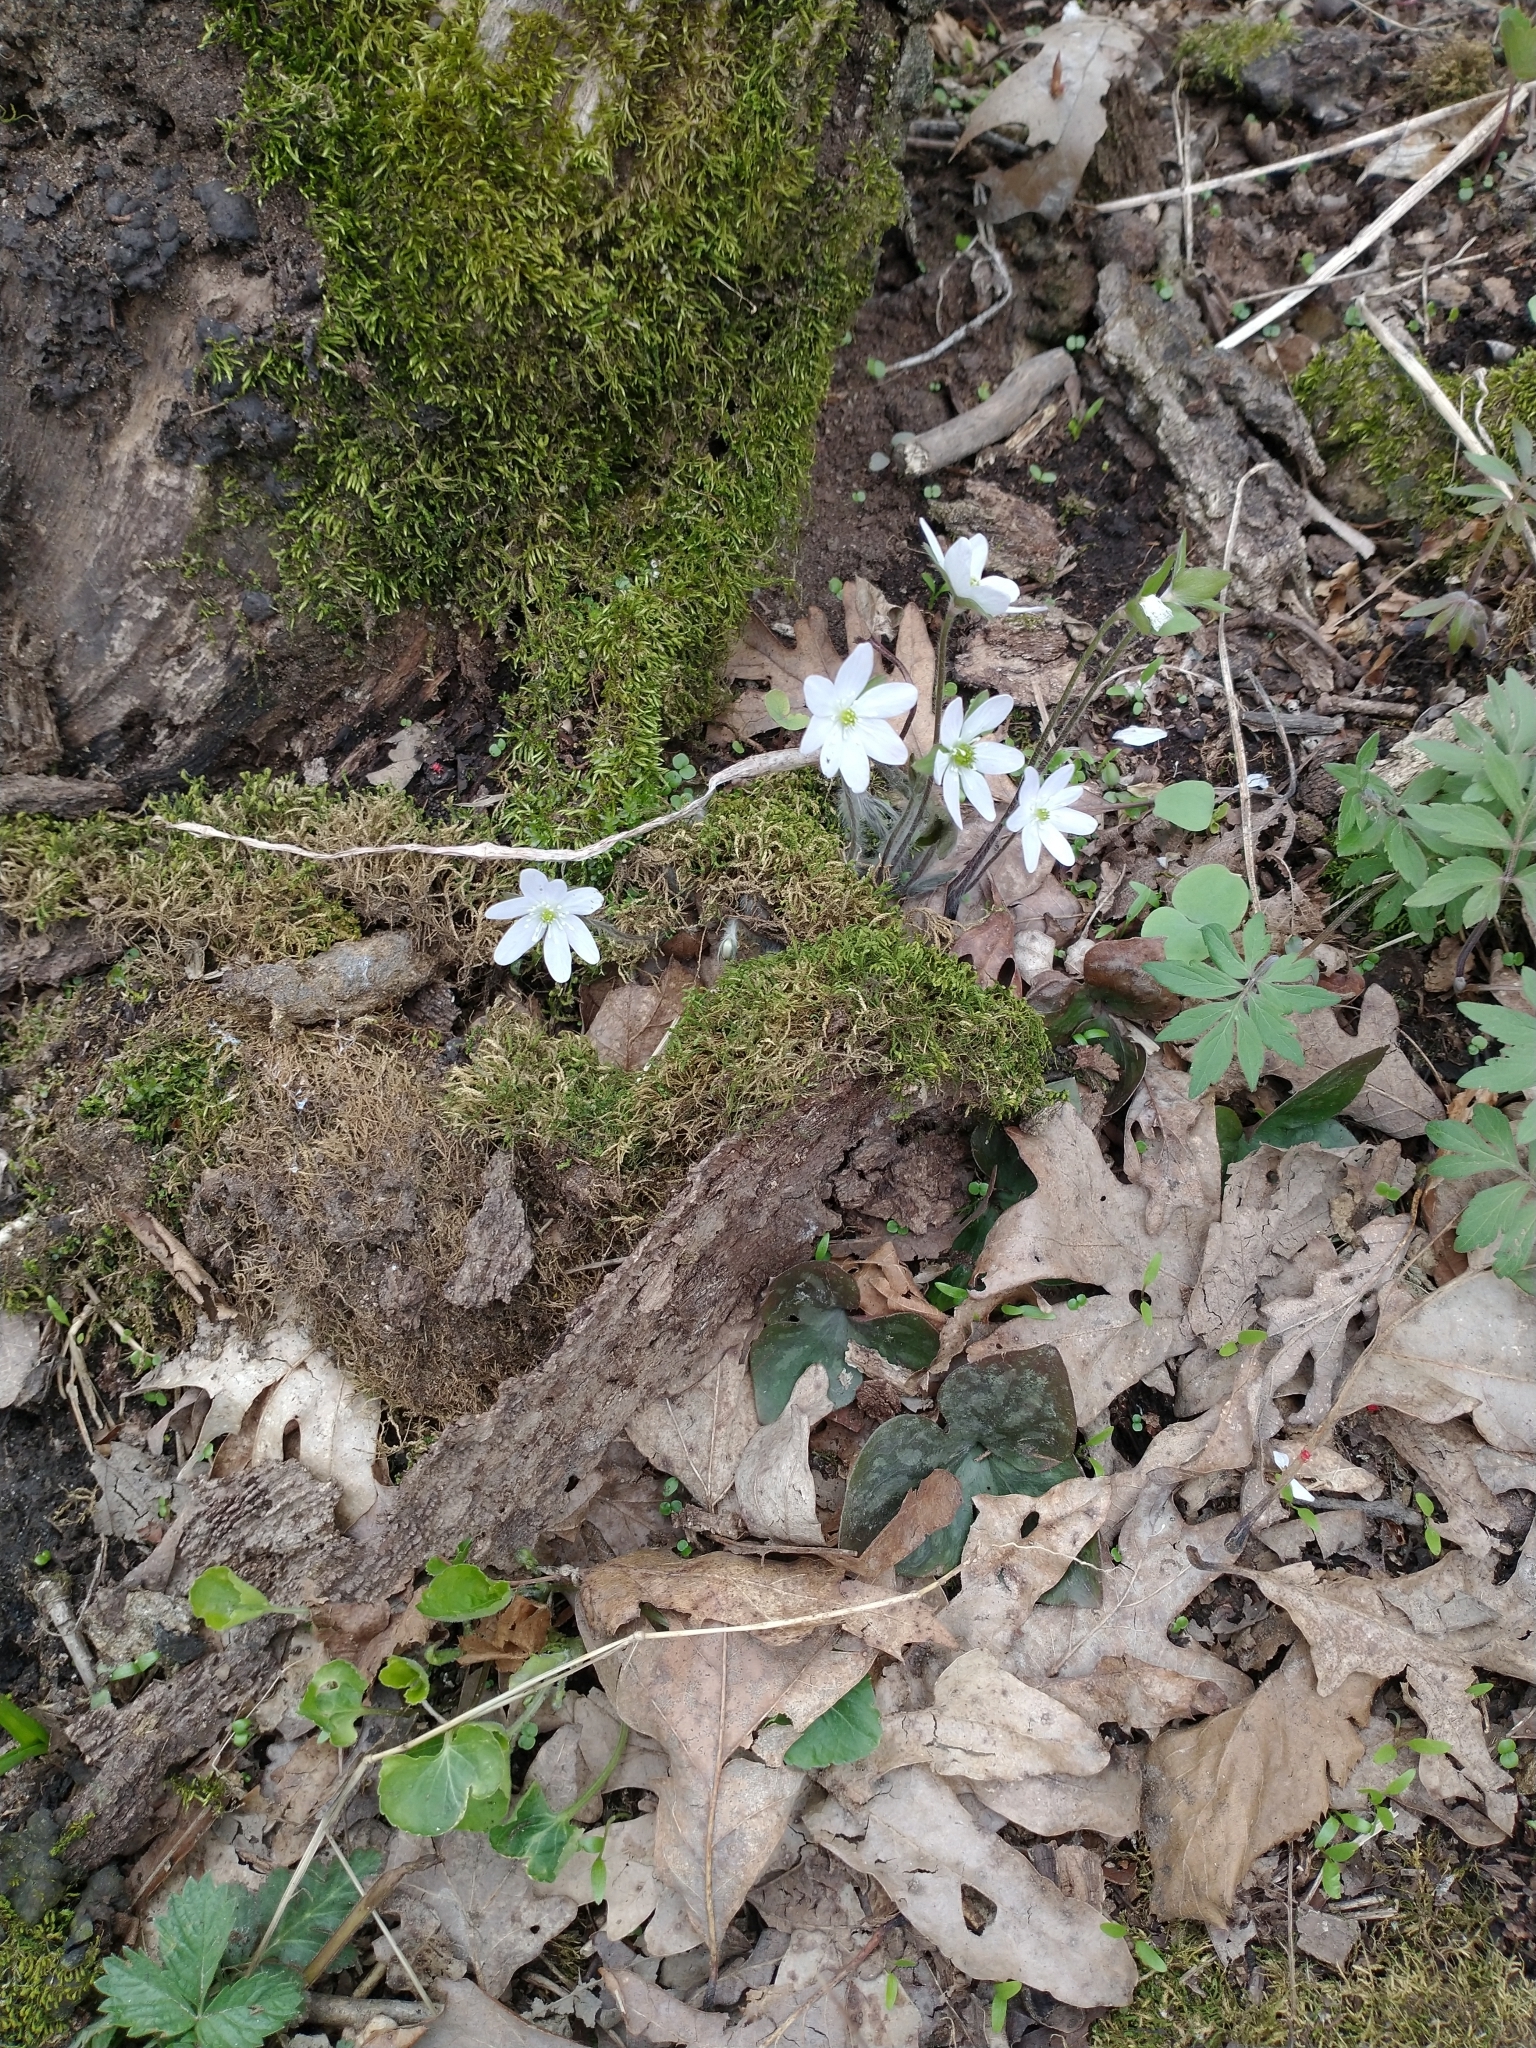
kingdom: Plantae
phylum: Tracheophyta
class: Magnoliopsida
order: Ranunculales
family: Ranunculaceae
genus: Hepatica
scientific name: Hepatica acutiloba
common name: Sharp-lobed hepatica
